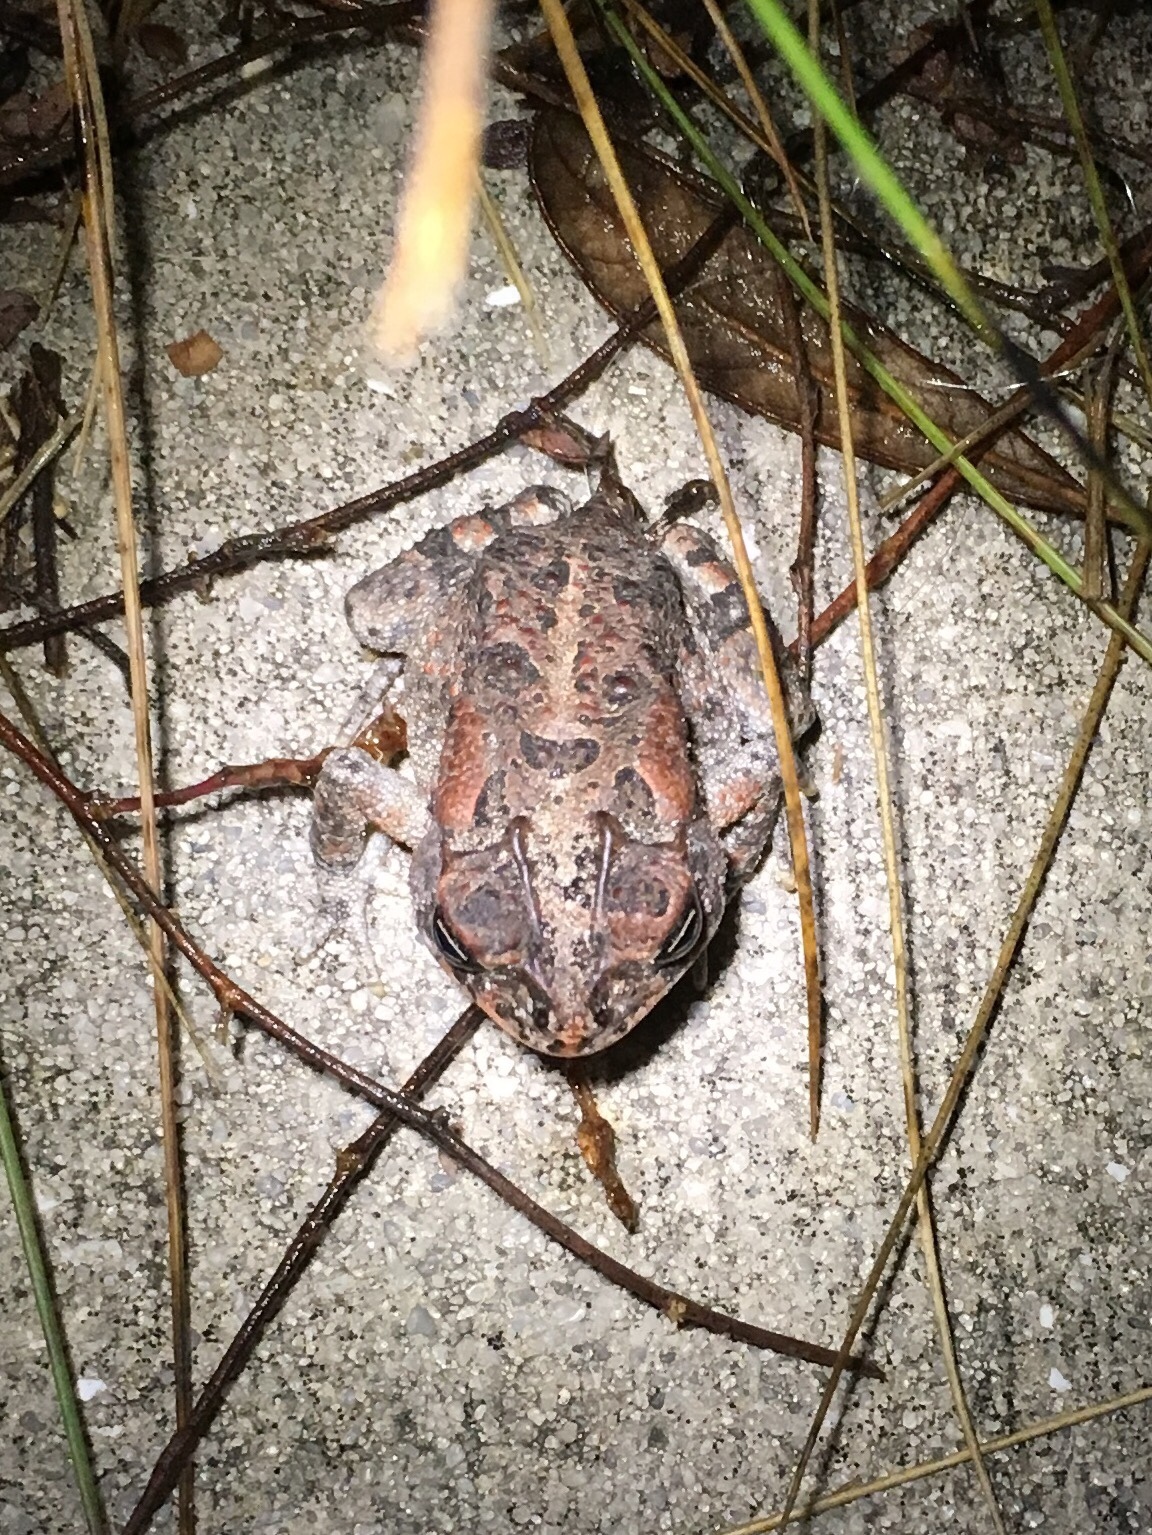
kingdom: Animalia
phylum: Chordata
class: Amphibia
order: Anura
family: Bufonidae
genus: Anaxyrus
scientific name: Anaxyrus terrestris
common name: Southern toad
